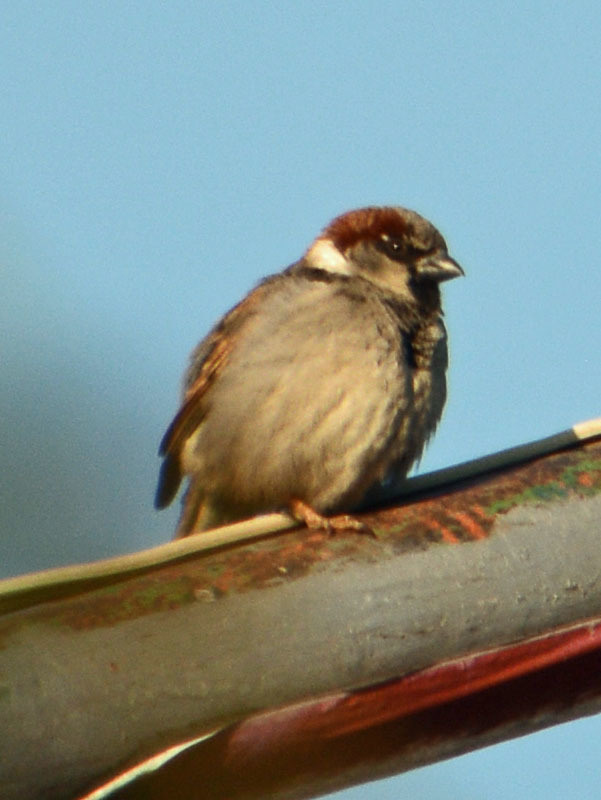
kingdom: Animalia
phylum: Chordata
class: Aves
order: Passeriformes
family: Passeridae
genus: Passer
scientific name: Passer domesticus
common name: House sparrow
